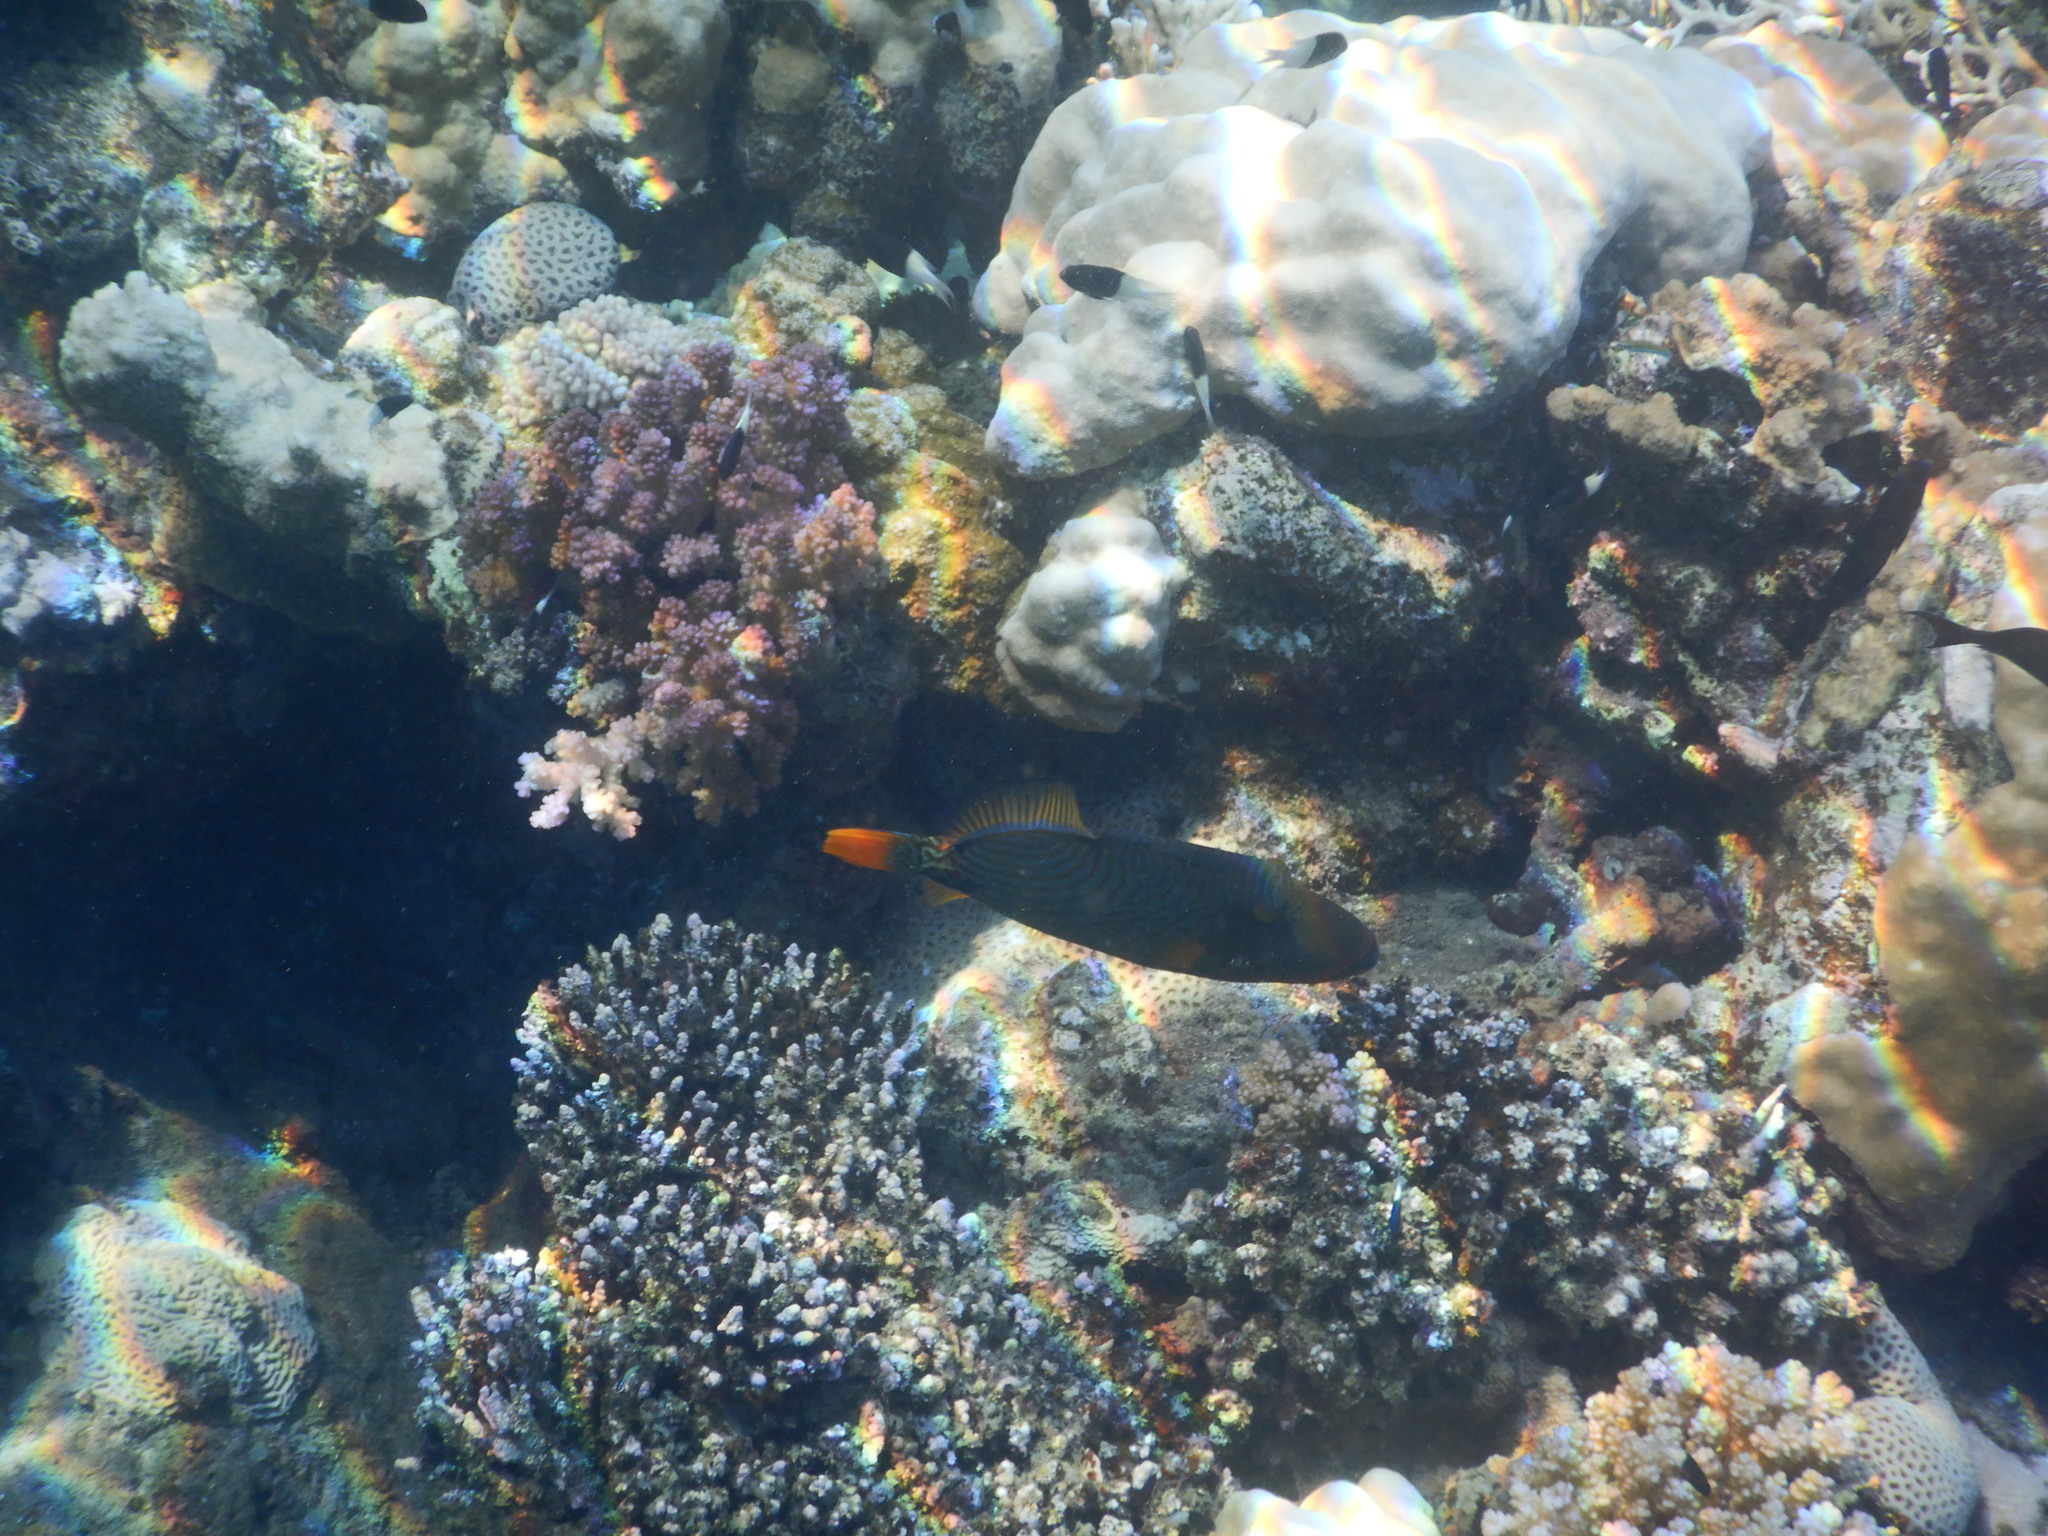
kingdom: Animalia
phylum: Chordata
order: Tetraodontiformes
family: Balistidae
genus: Balistapus
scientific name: Balistapus undulatus
